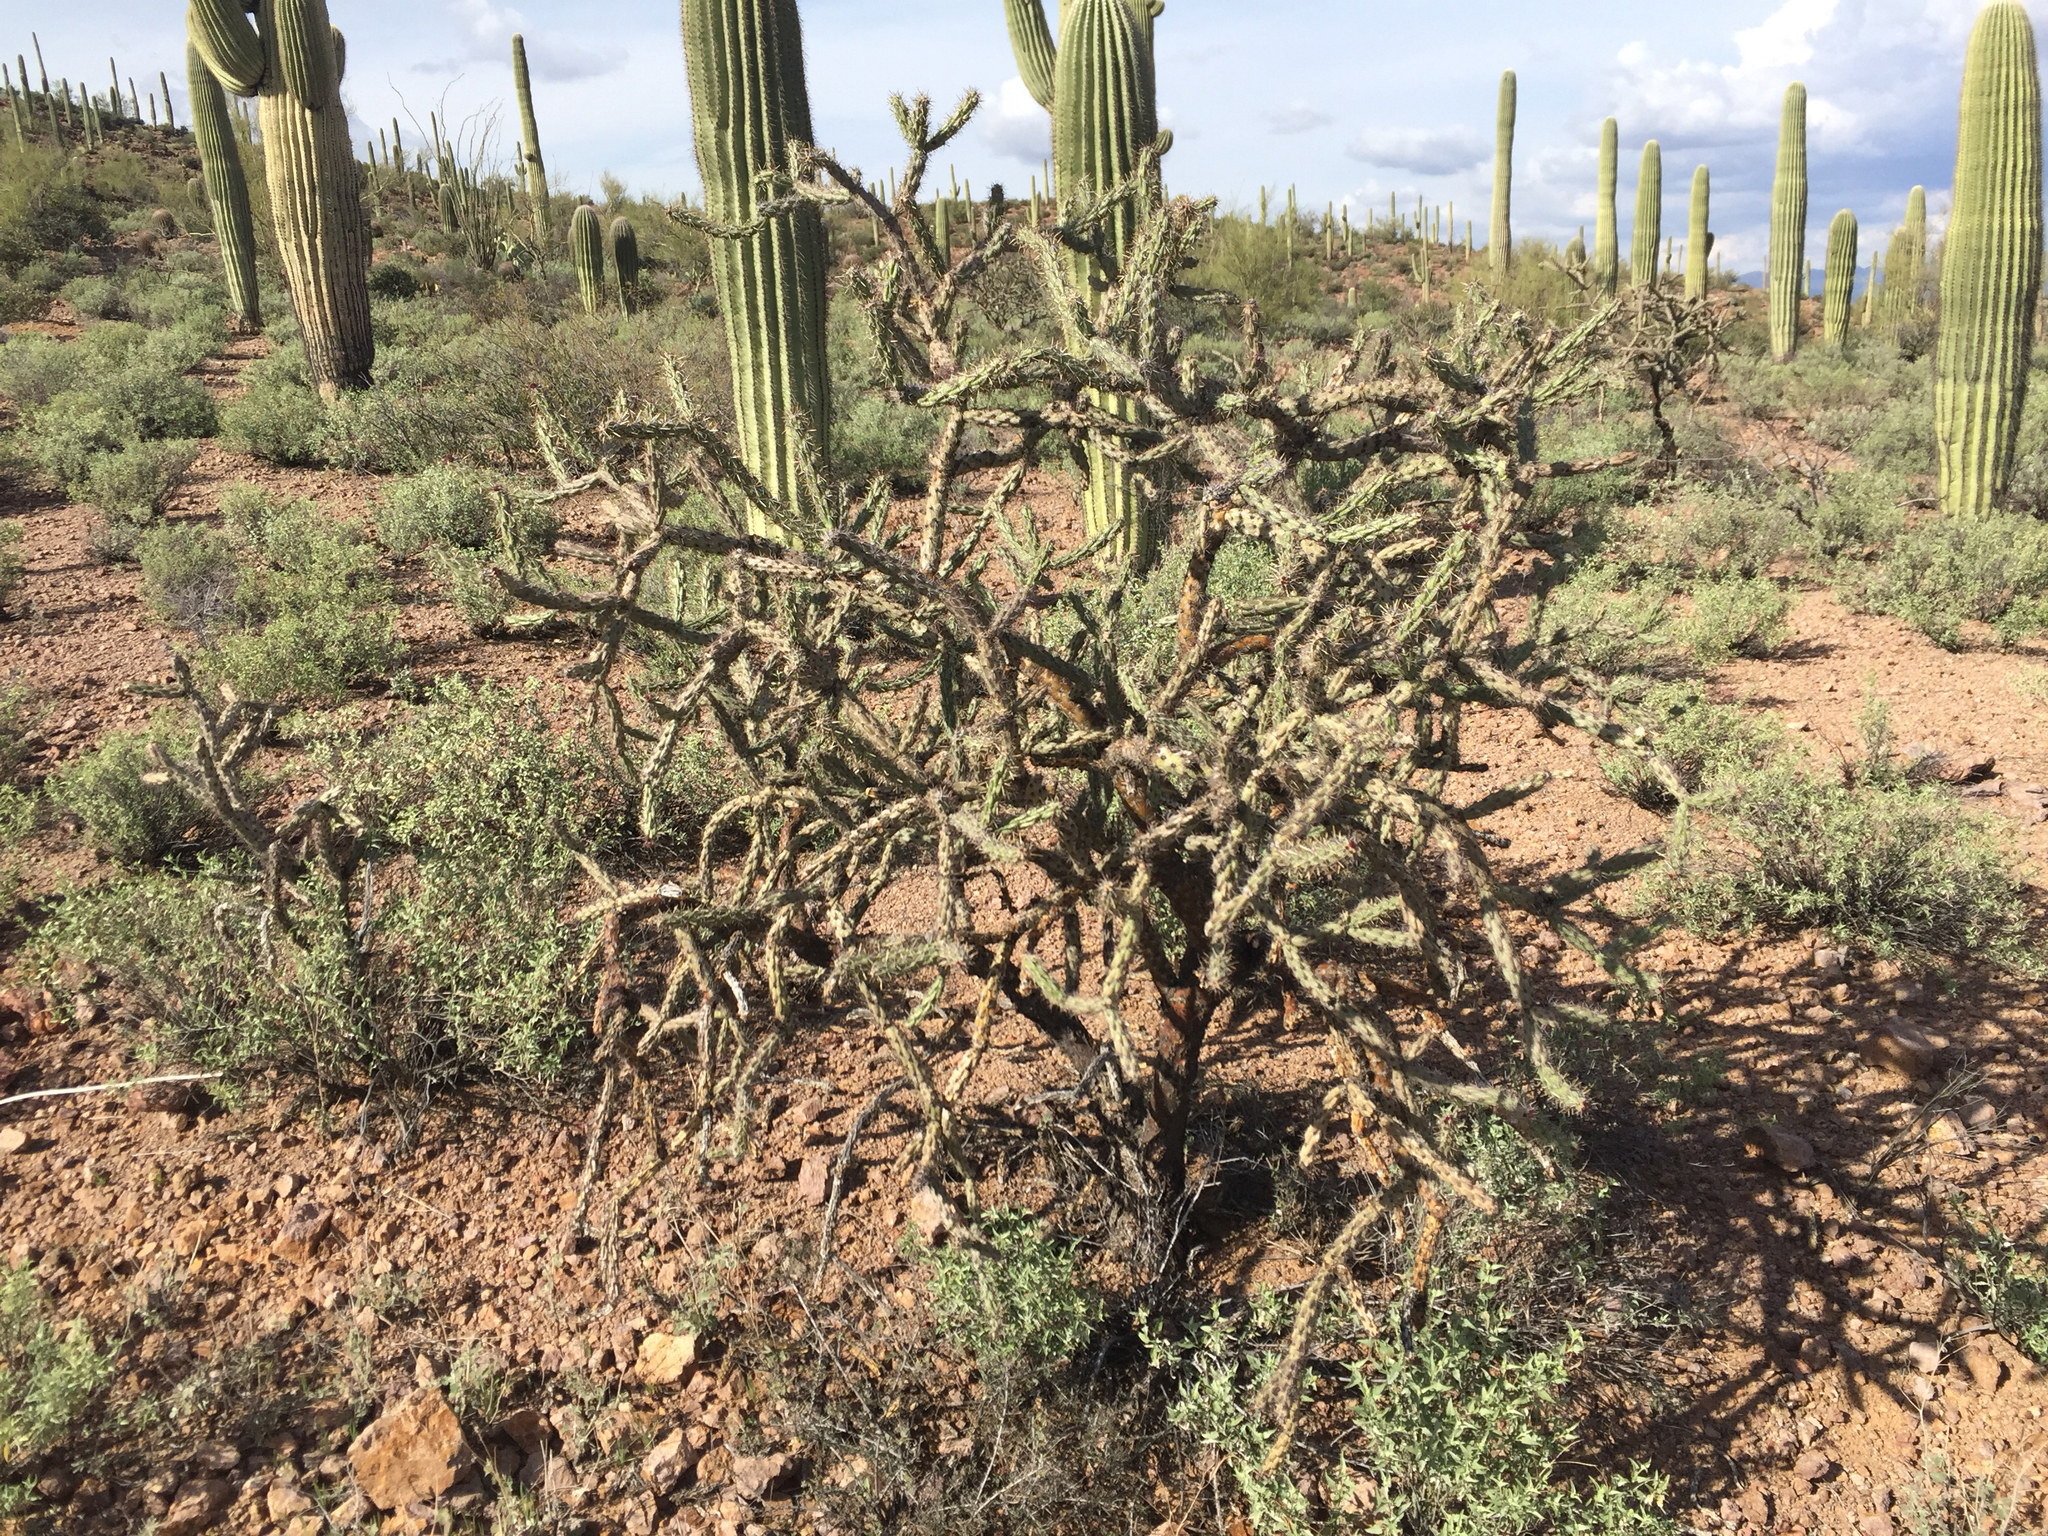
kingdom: Plantae
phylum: Tracheophyta
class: Magnoliopsida
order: Caryophyllales
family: Cactaceae
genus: Cylindropuntia
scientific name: Cylindropuntia acanthocarpa
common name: Buckhorn cholla
